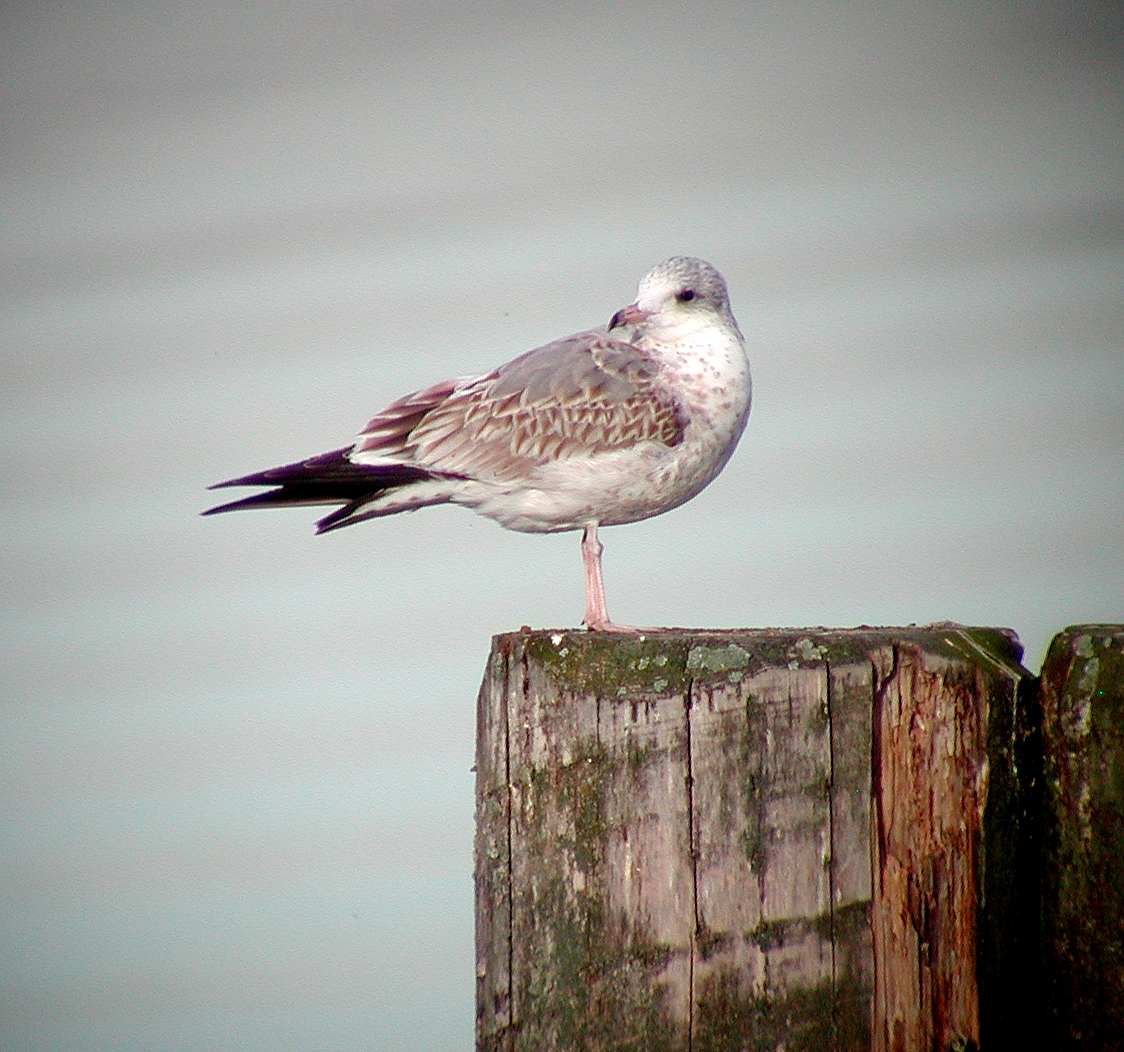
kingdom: Animalia
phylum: Chordata
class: Aves
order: Charadriiformes
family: Laridae
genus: Larus
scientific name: Larus canus
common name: Mew gull
